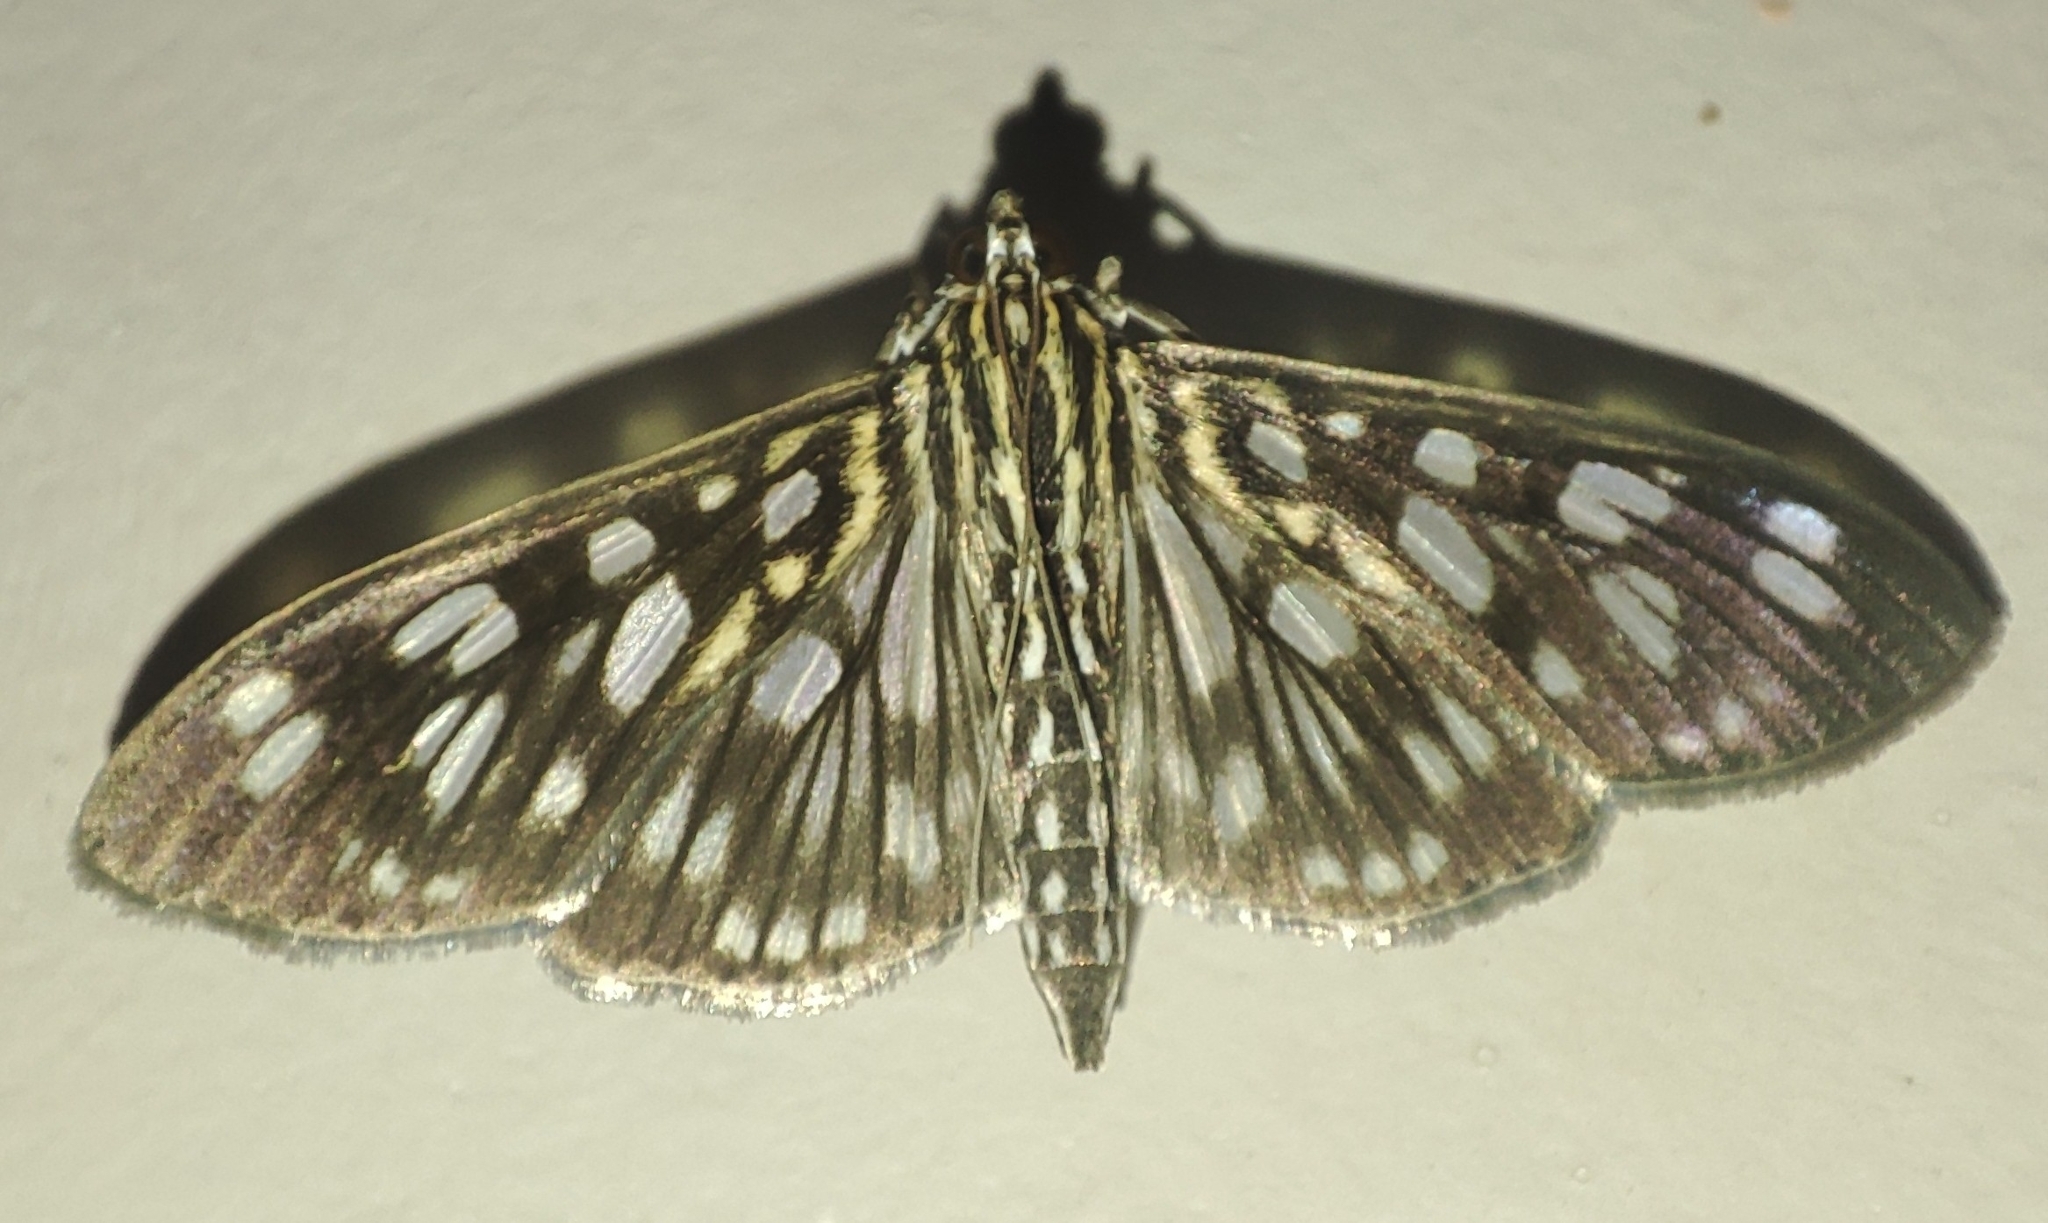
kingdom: Animalia
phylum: Arthropoda
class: Insecta
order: Lepidoptera
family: Crambidae
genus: Pygospila
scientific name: Pygospila tyres
